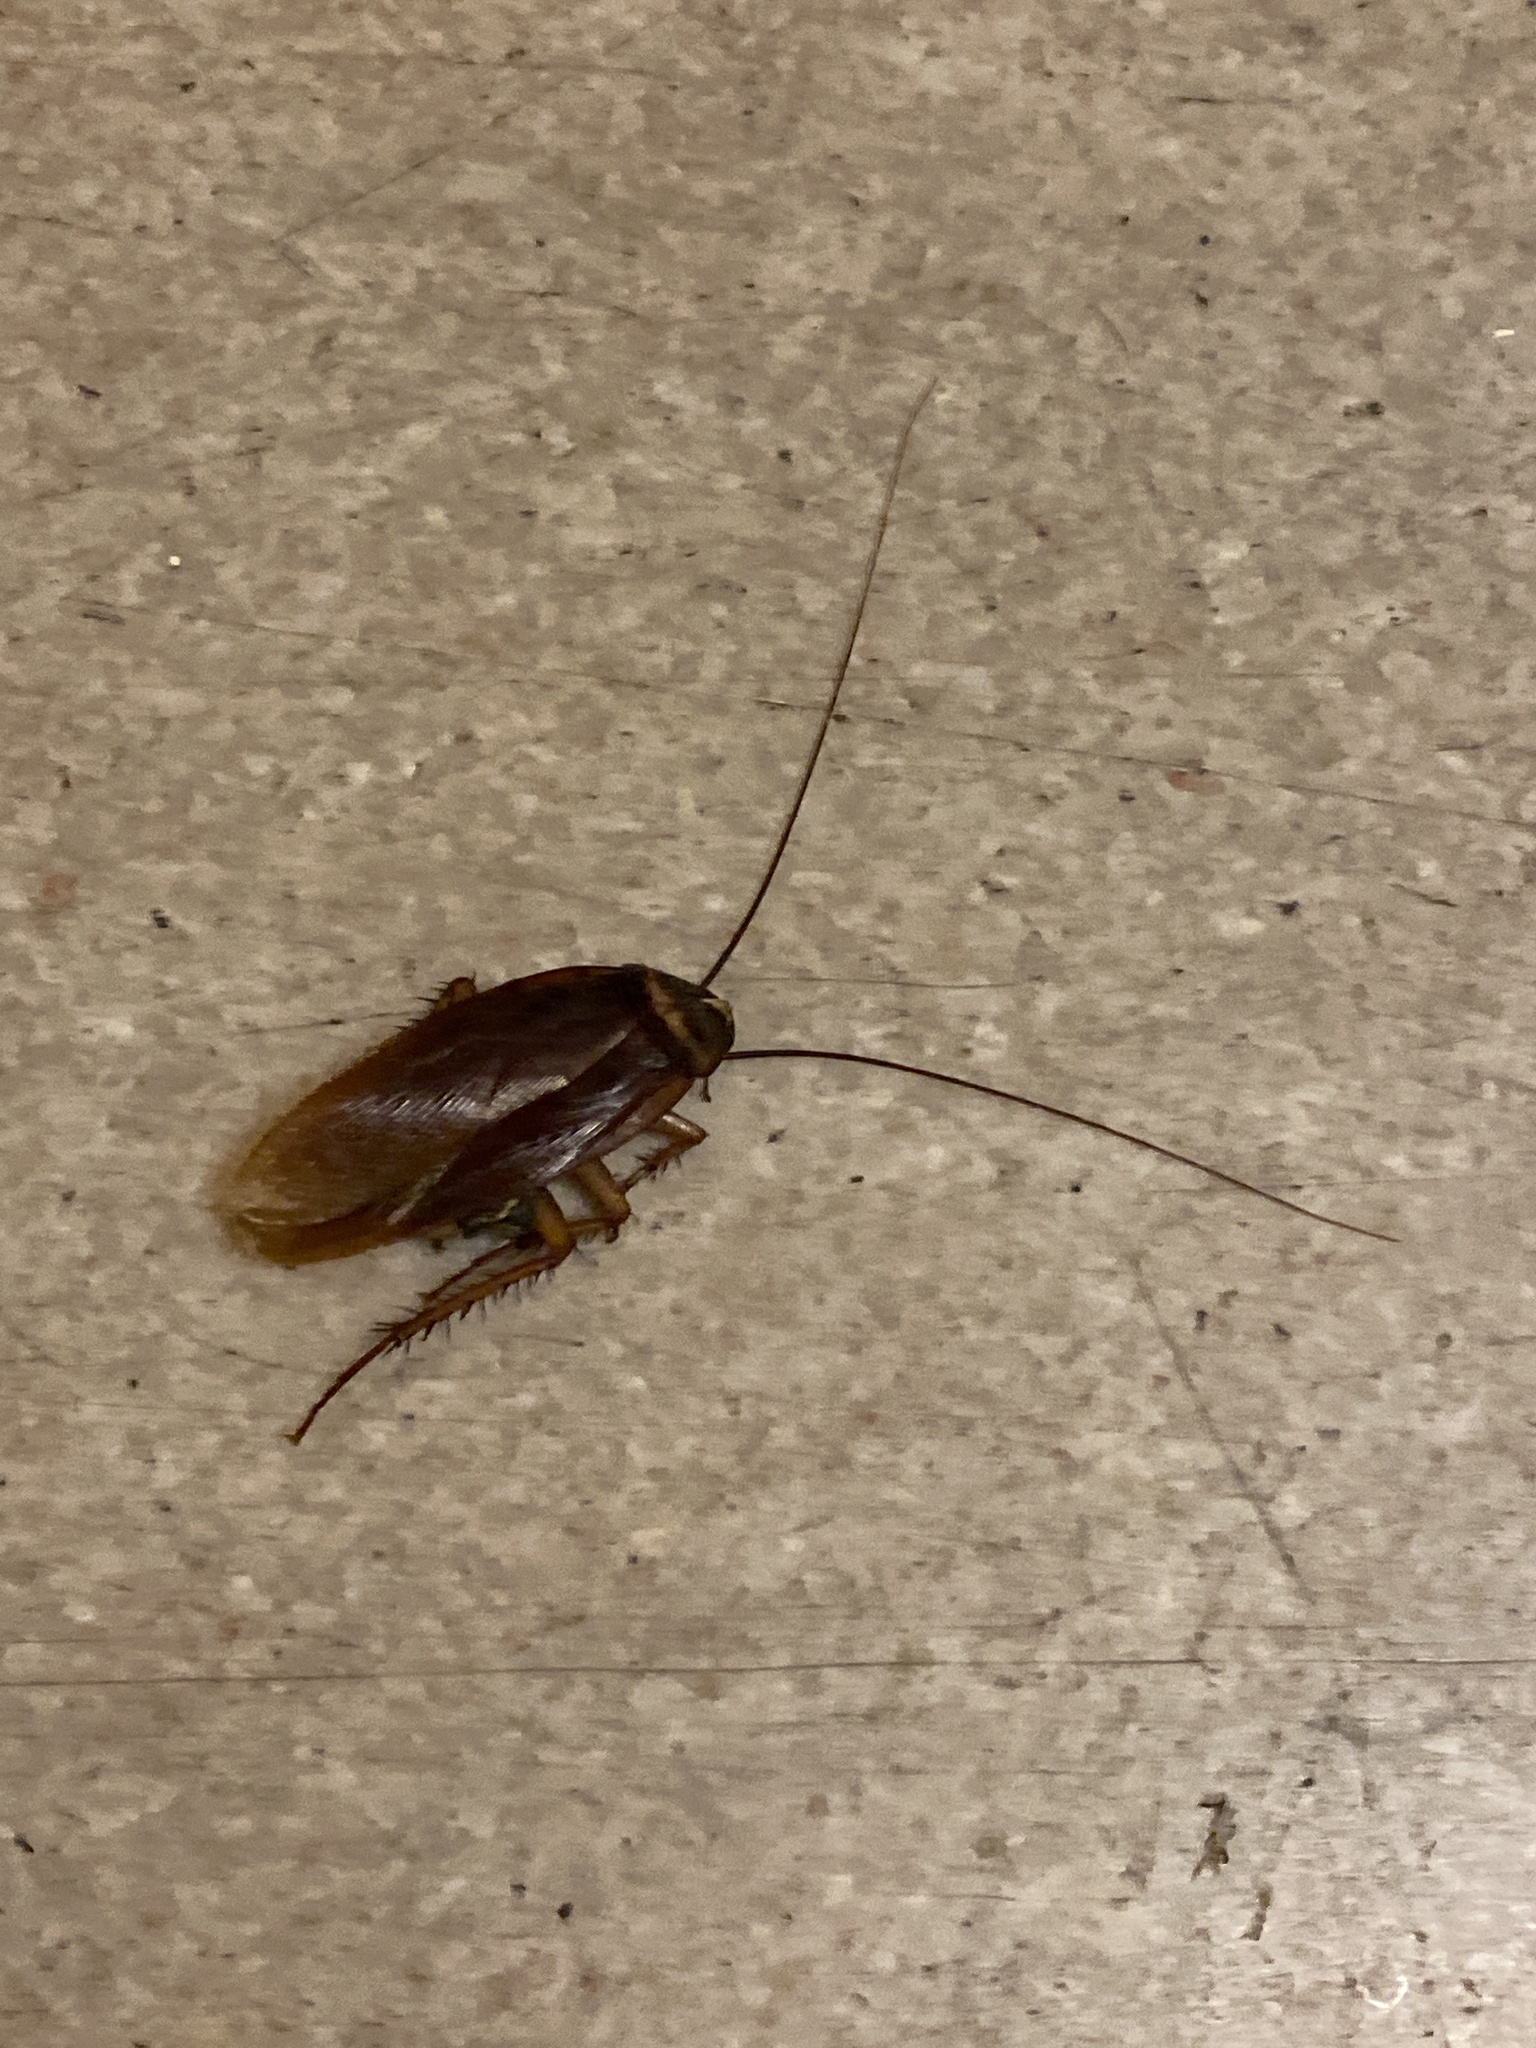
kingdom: Animalia
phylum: Arthropoda
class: Insecta
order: Blattodea
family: Blattidae
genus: Periplaneta
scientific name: Periplaneta americana
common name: American cockroach
